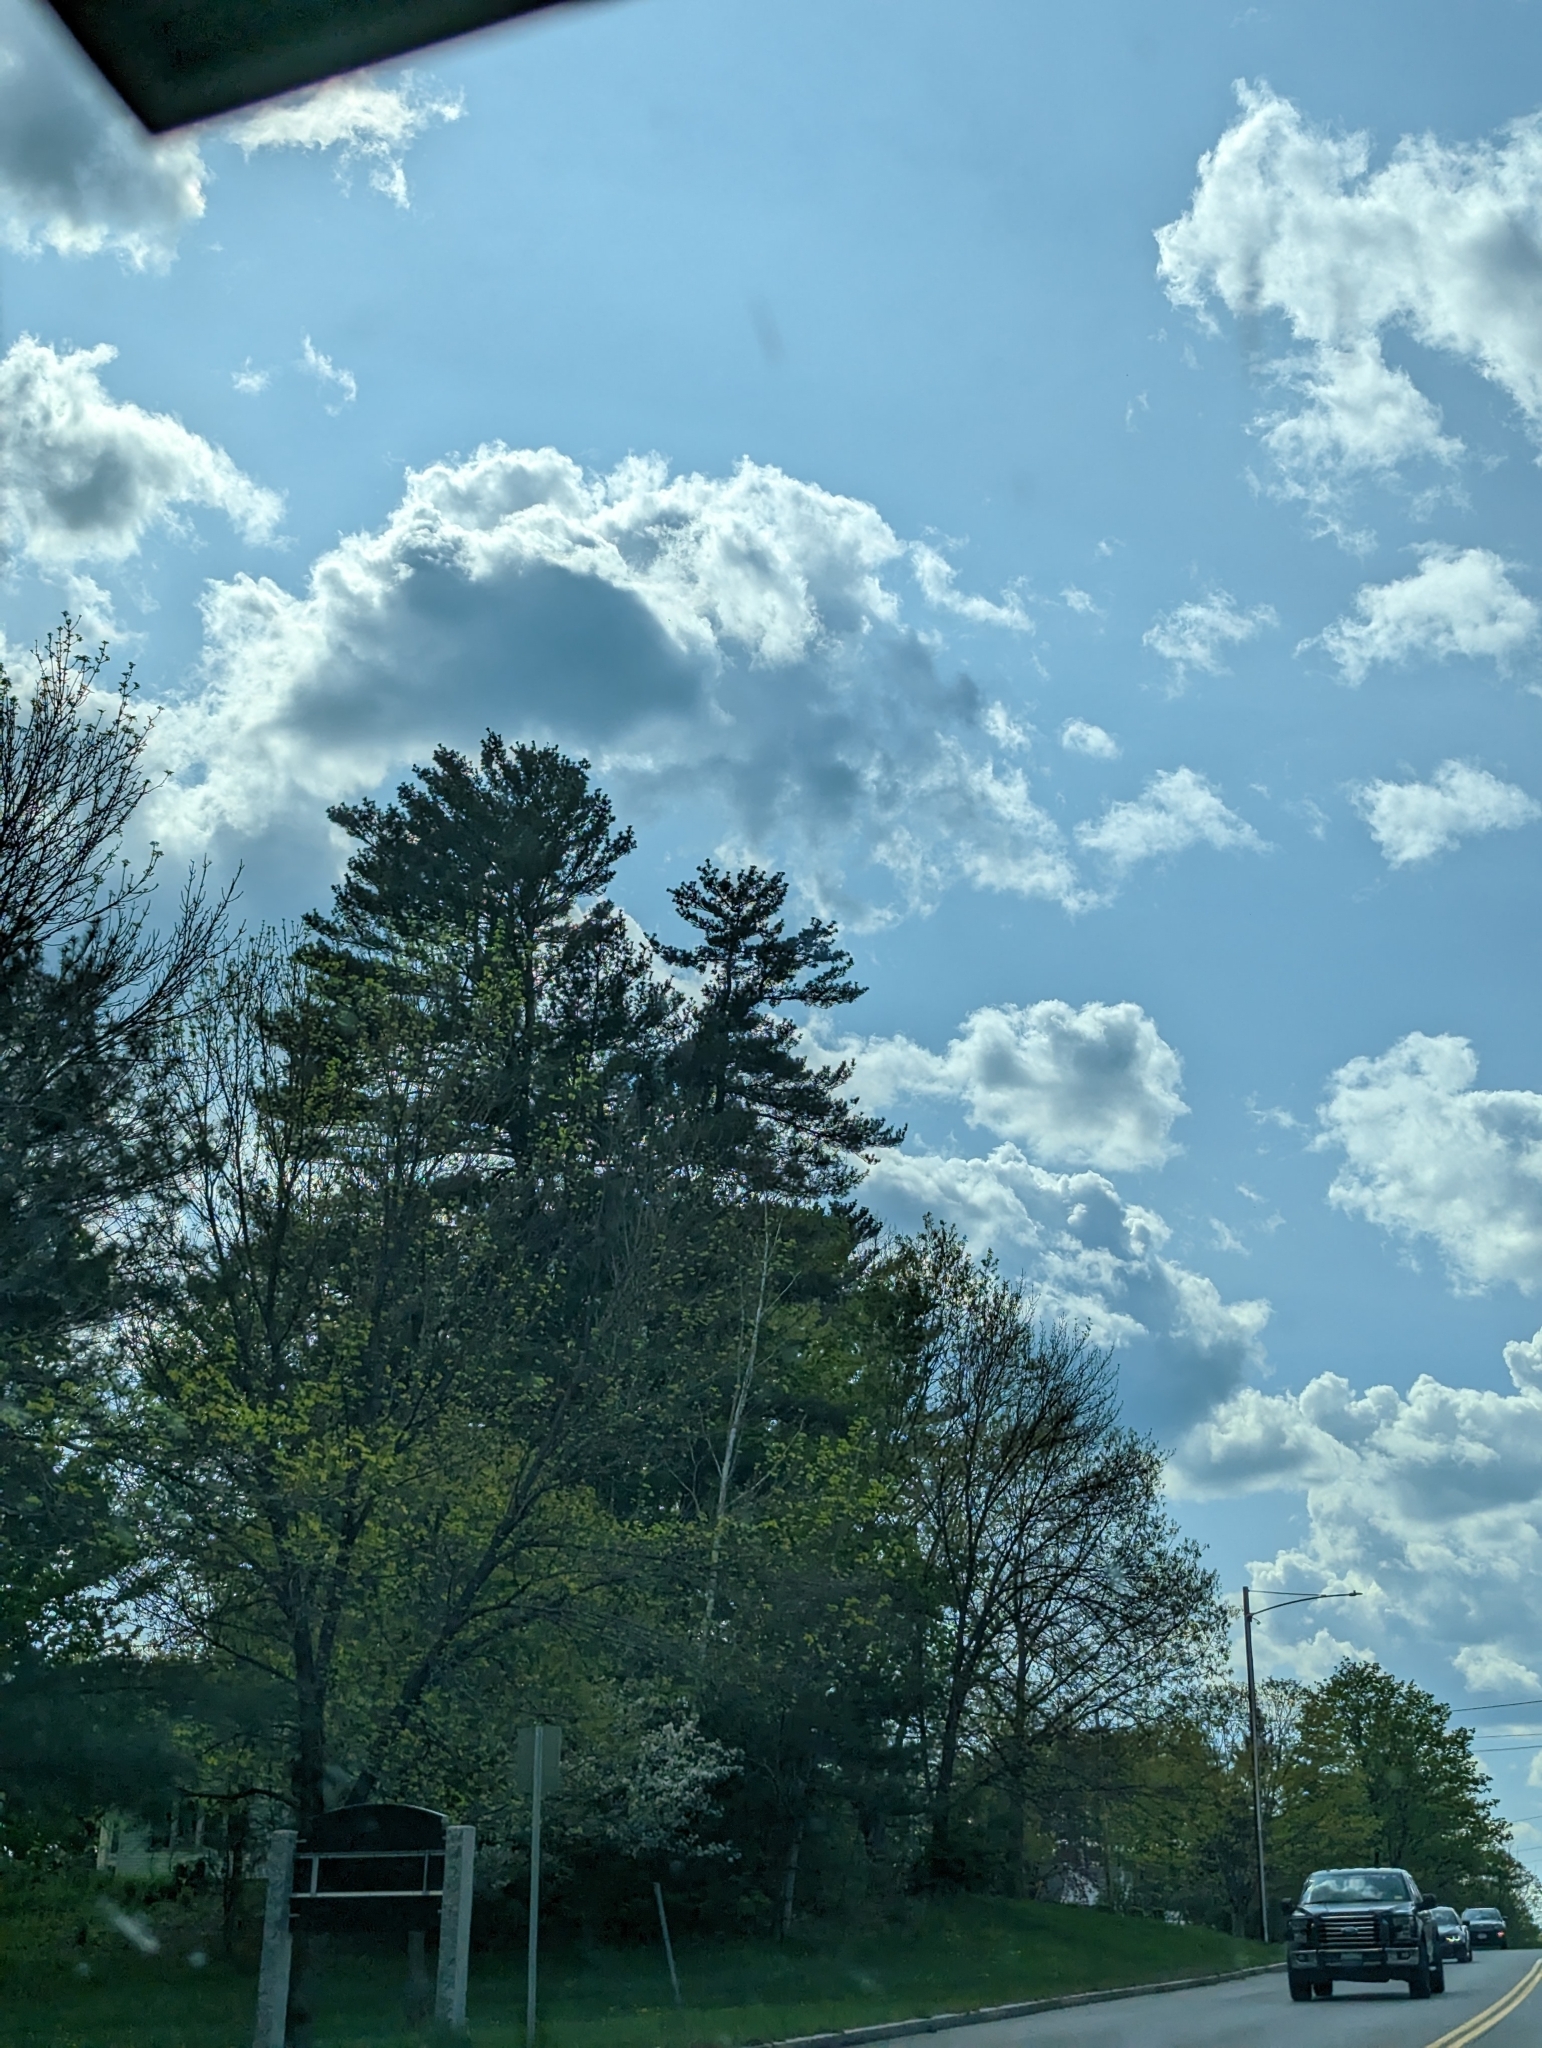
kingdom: Plantae
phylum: Tracheophyta
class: Pinopsida
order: Pinales
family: Pinaceae
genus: Pinus
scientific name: Pinus strobus
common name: Weymouth pine
